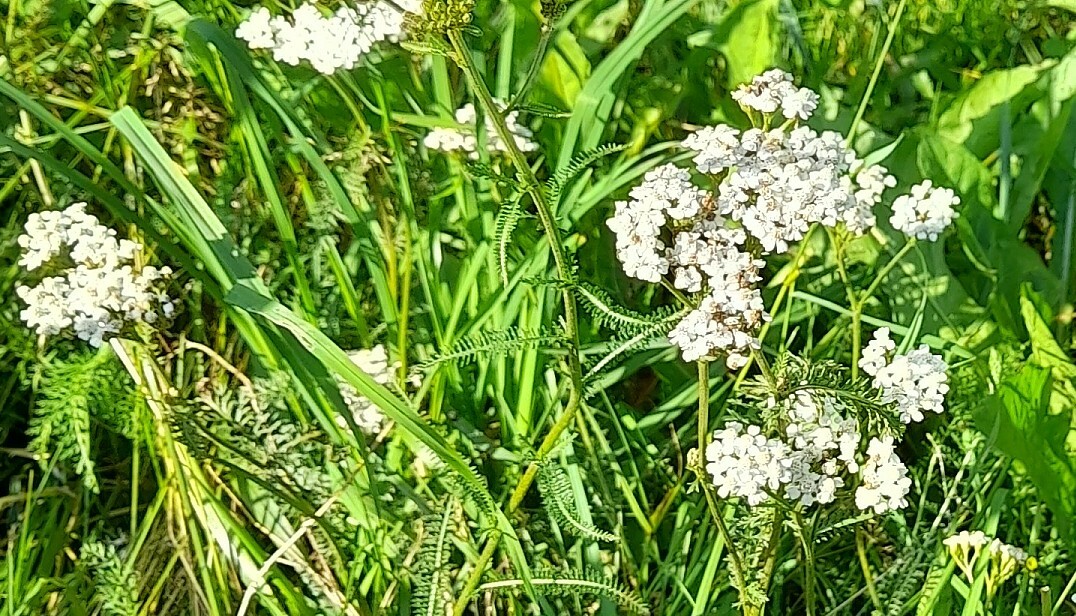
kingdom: Plantae
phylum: Tracheophyta
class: Magnoliopsida
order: Asterales
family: Asteraceae
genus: Achillea
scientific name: Achillea millefolium
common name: Yarrow
